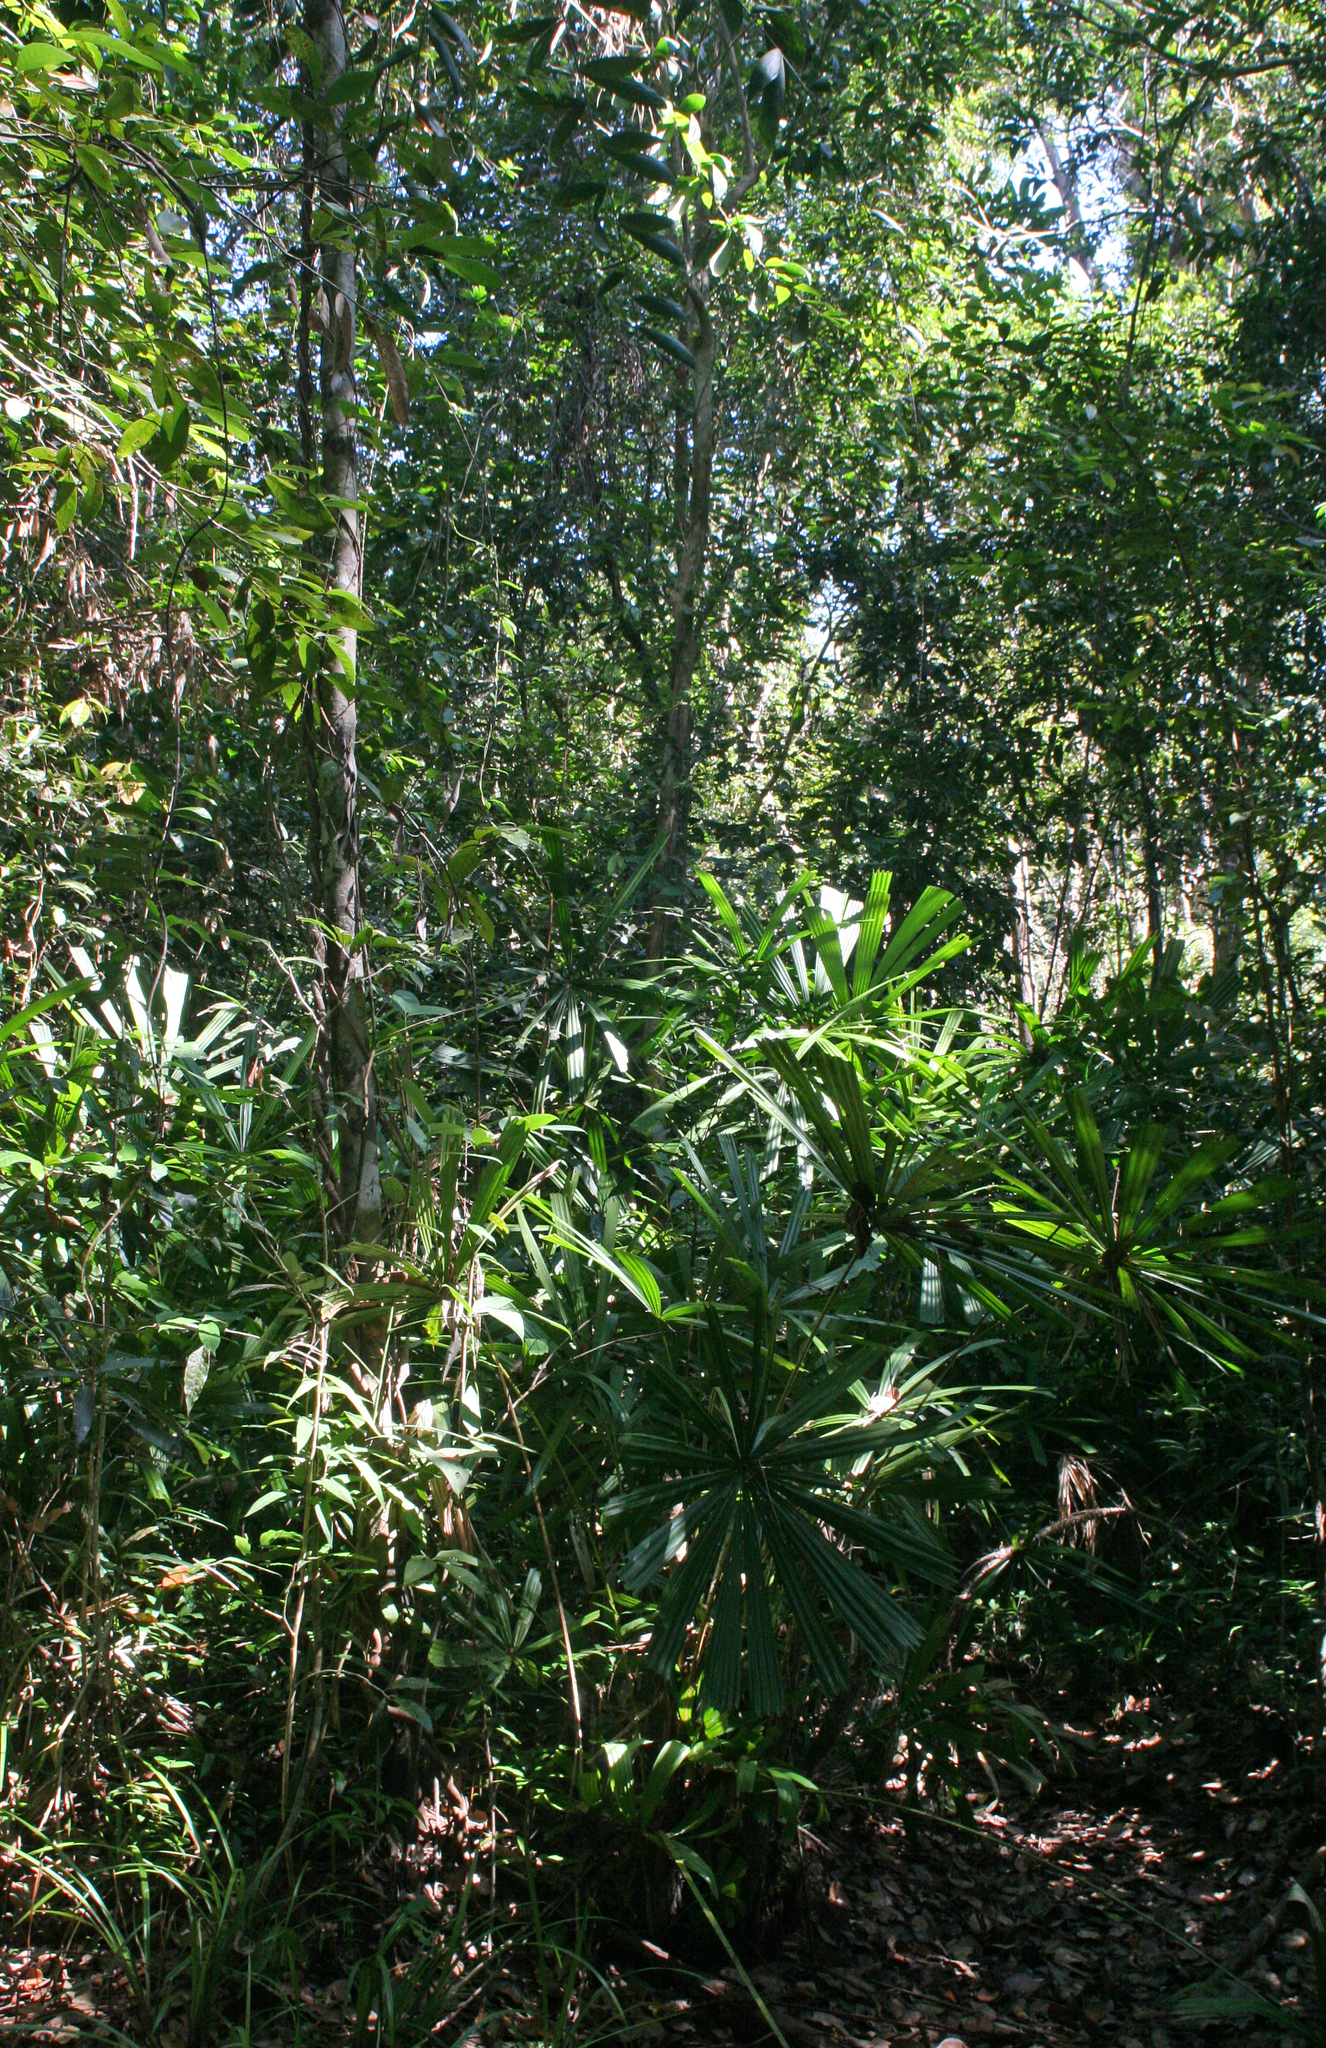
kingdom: Plantae
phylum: Tracheophyta
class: Liliopsida
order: Arecales
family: Arecaceae
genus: Licuala
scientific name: Licuala spinosa
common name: Mangrove fan palm
